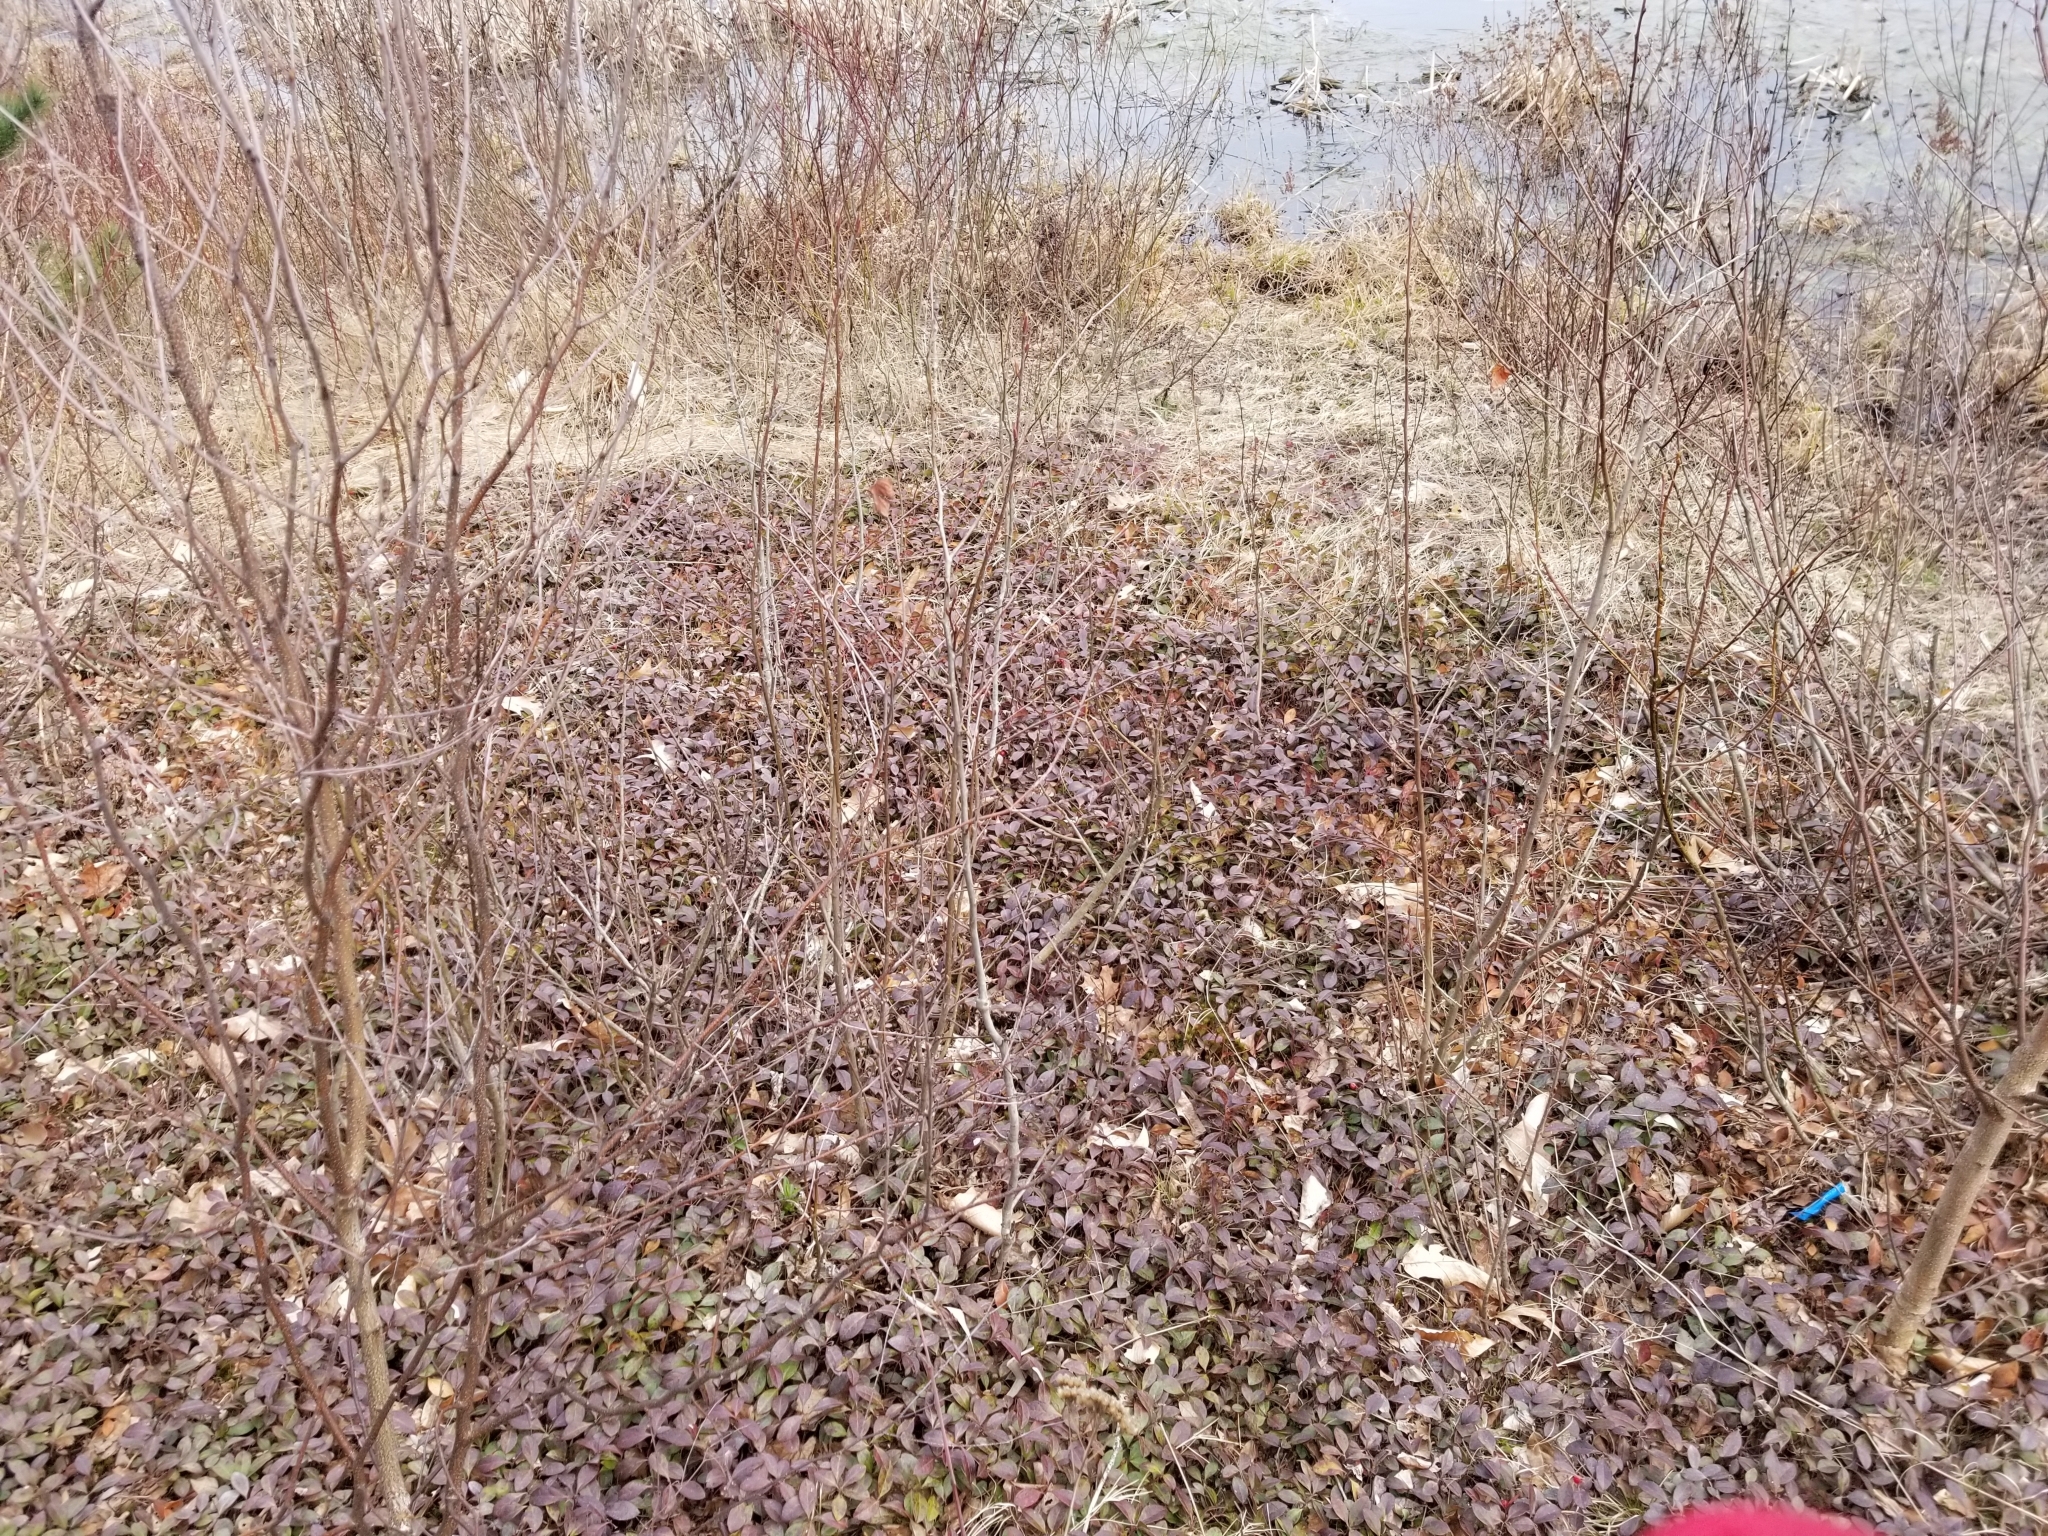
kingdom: Plantae
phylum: Tracheophyta
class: Magnoliopsida
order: Ericales
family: Ericaceae
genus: Gaultheria
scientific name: Gaultheria procumbens
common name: Checkerberry
